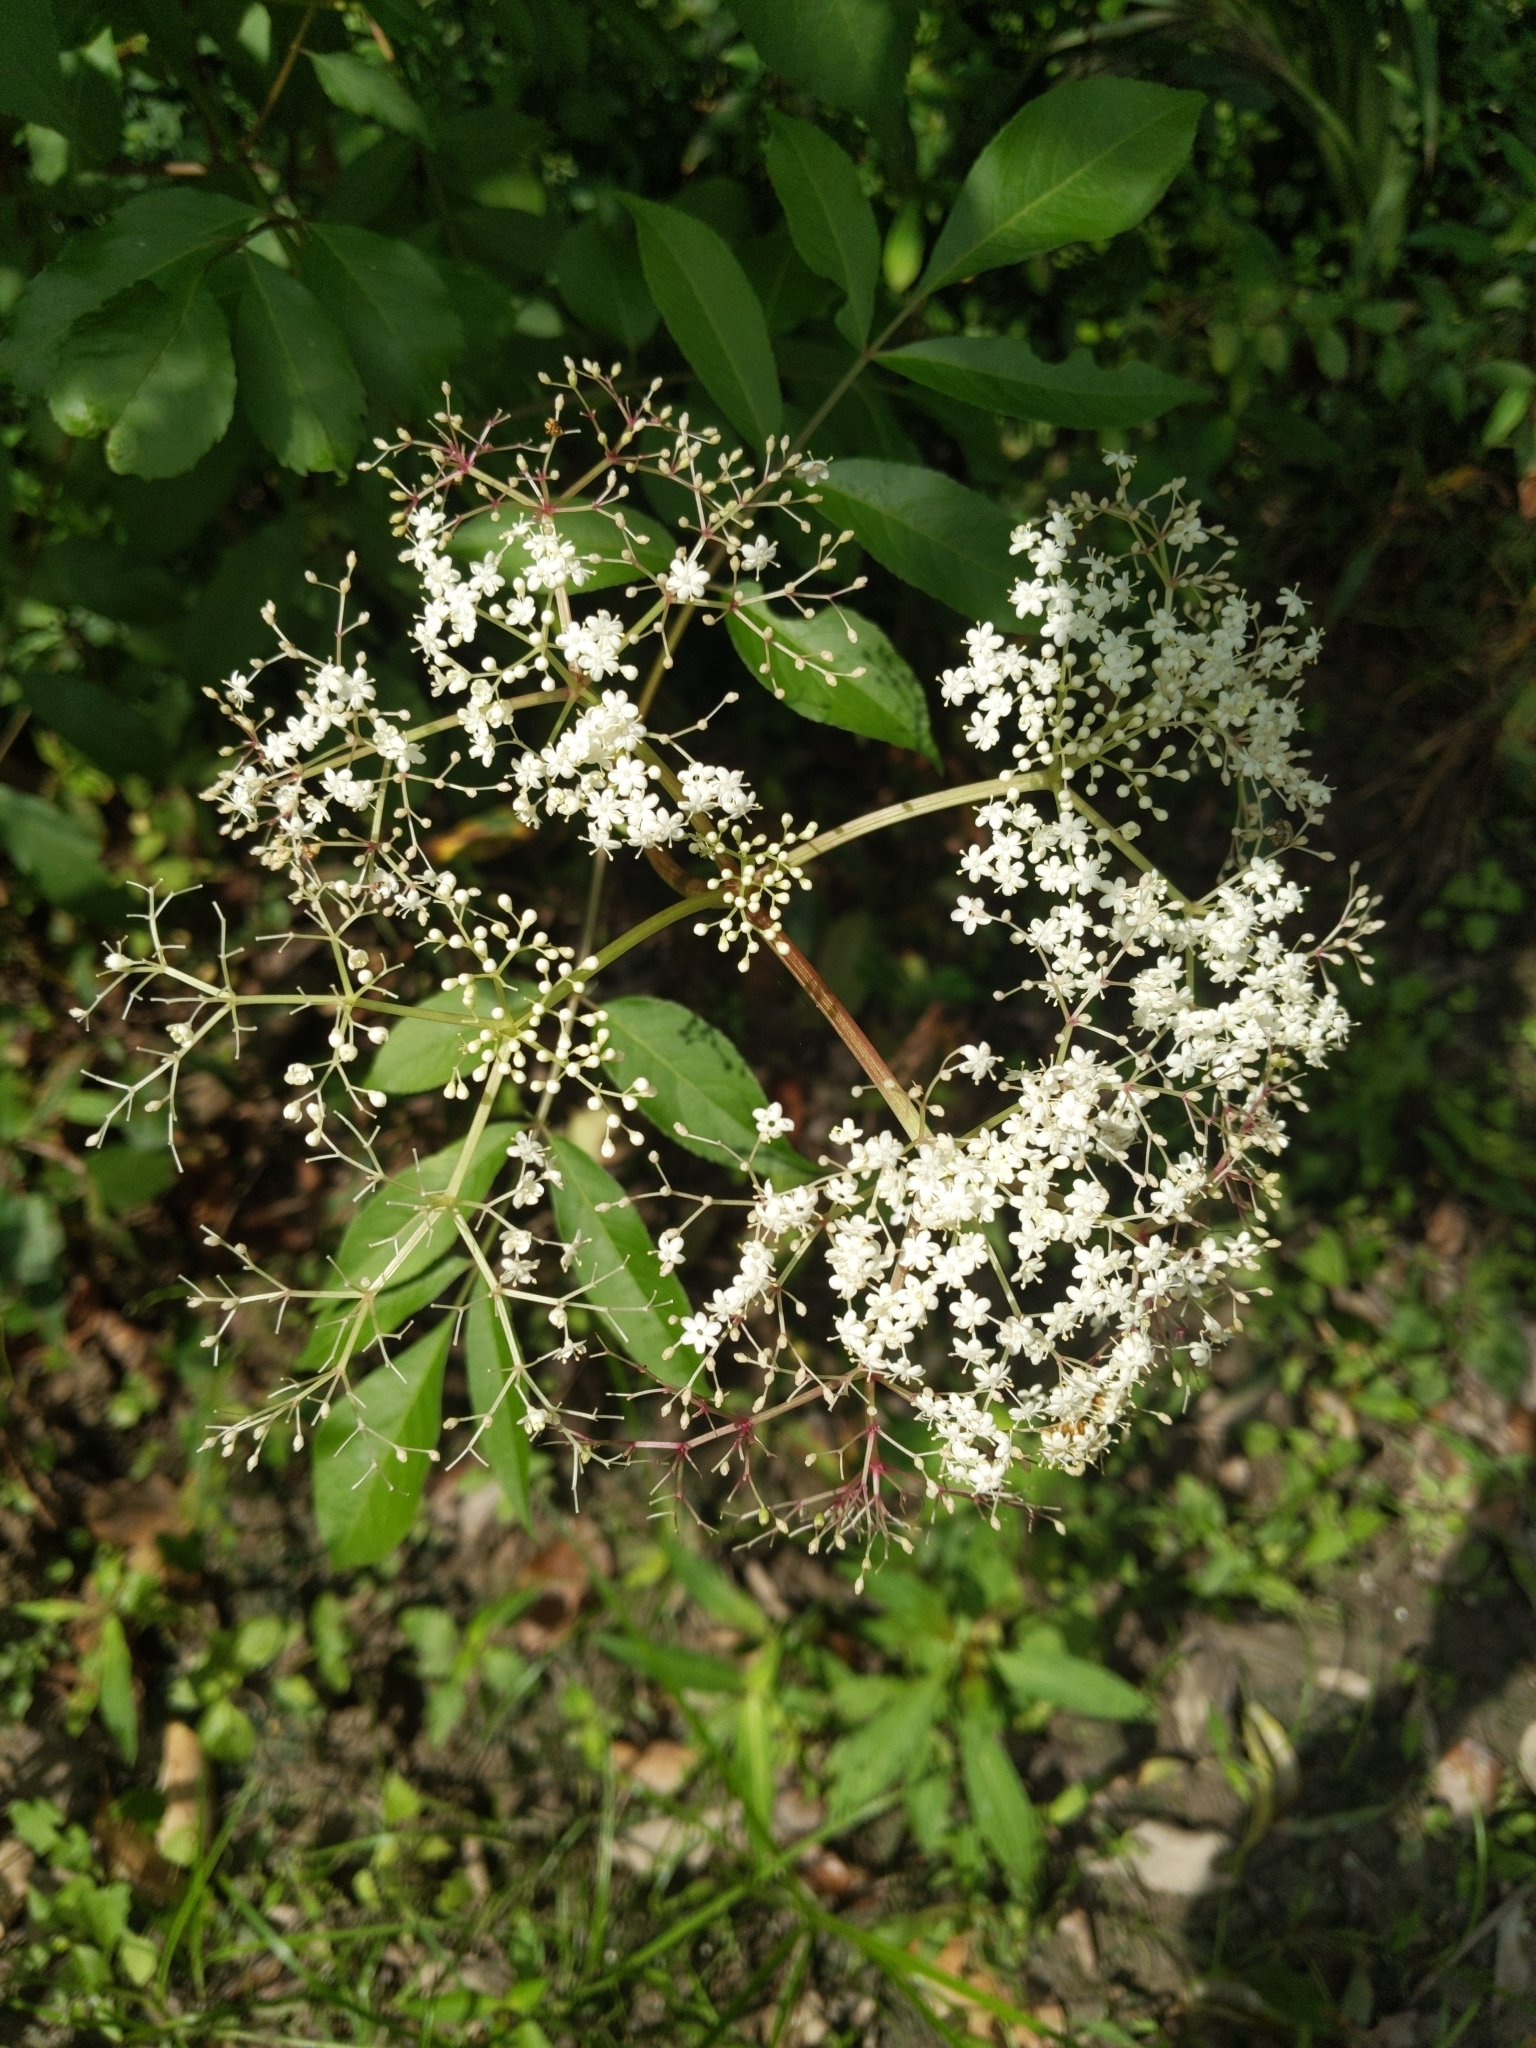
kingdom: Plantae
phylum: Tracheophyta
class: Magnoliopsida
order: Dipsacales
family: Viburnaceae
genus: Sambucus
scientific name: Sambucus canadensis
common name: American elder
